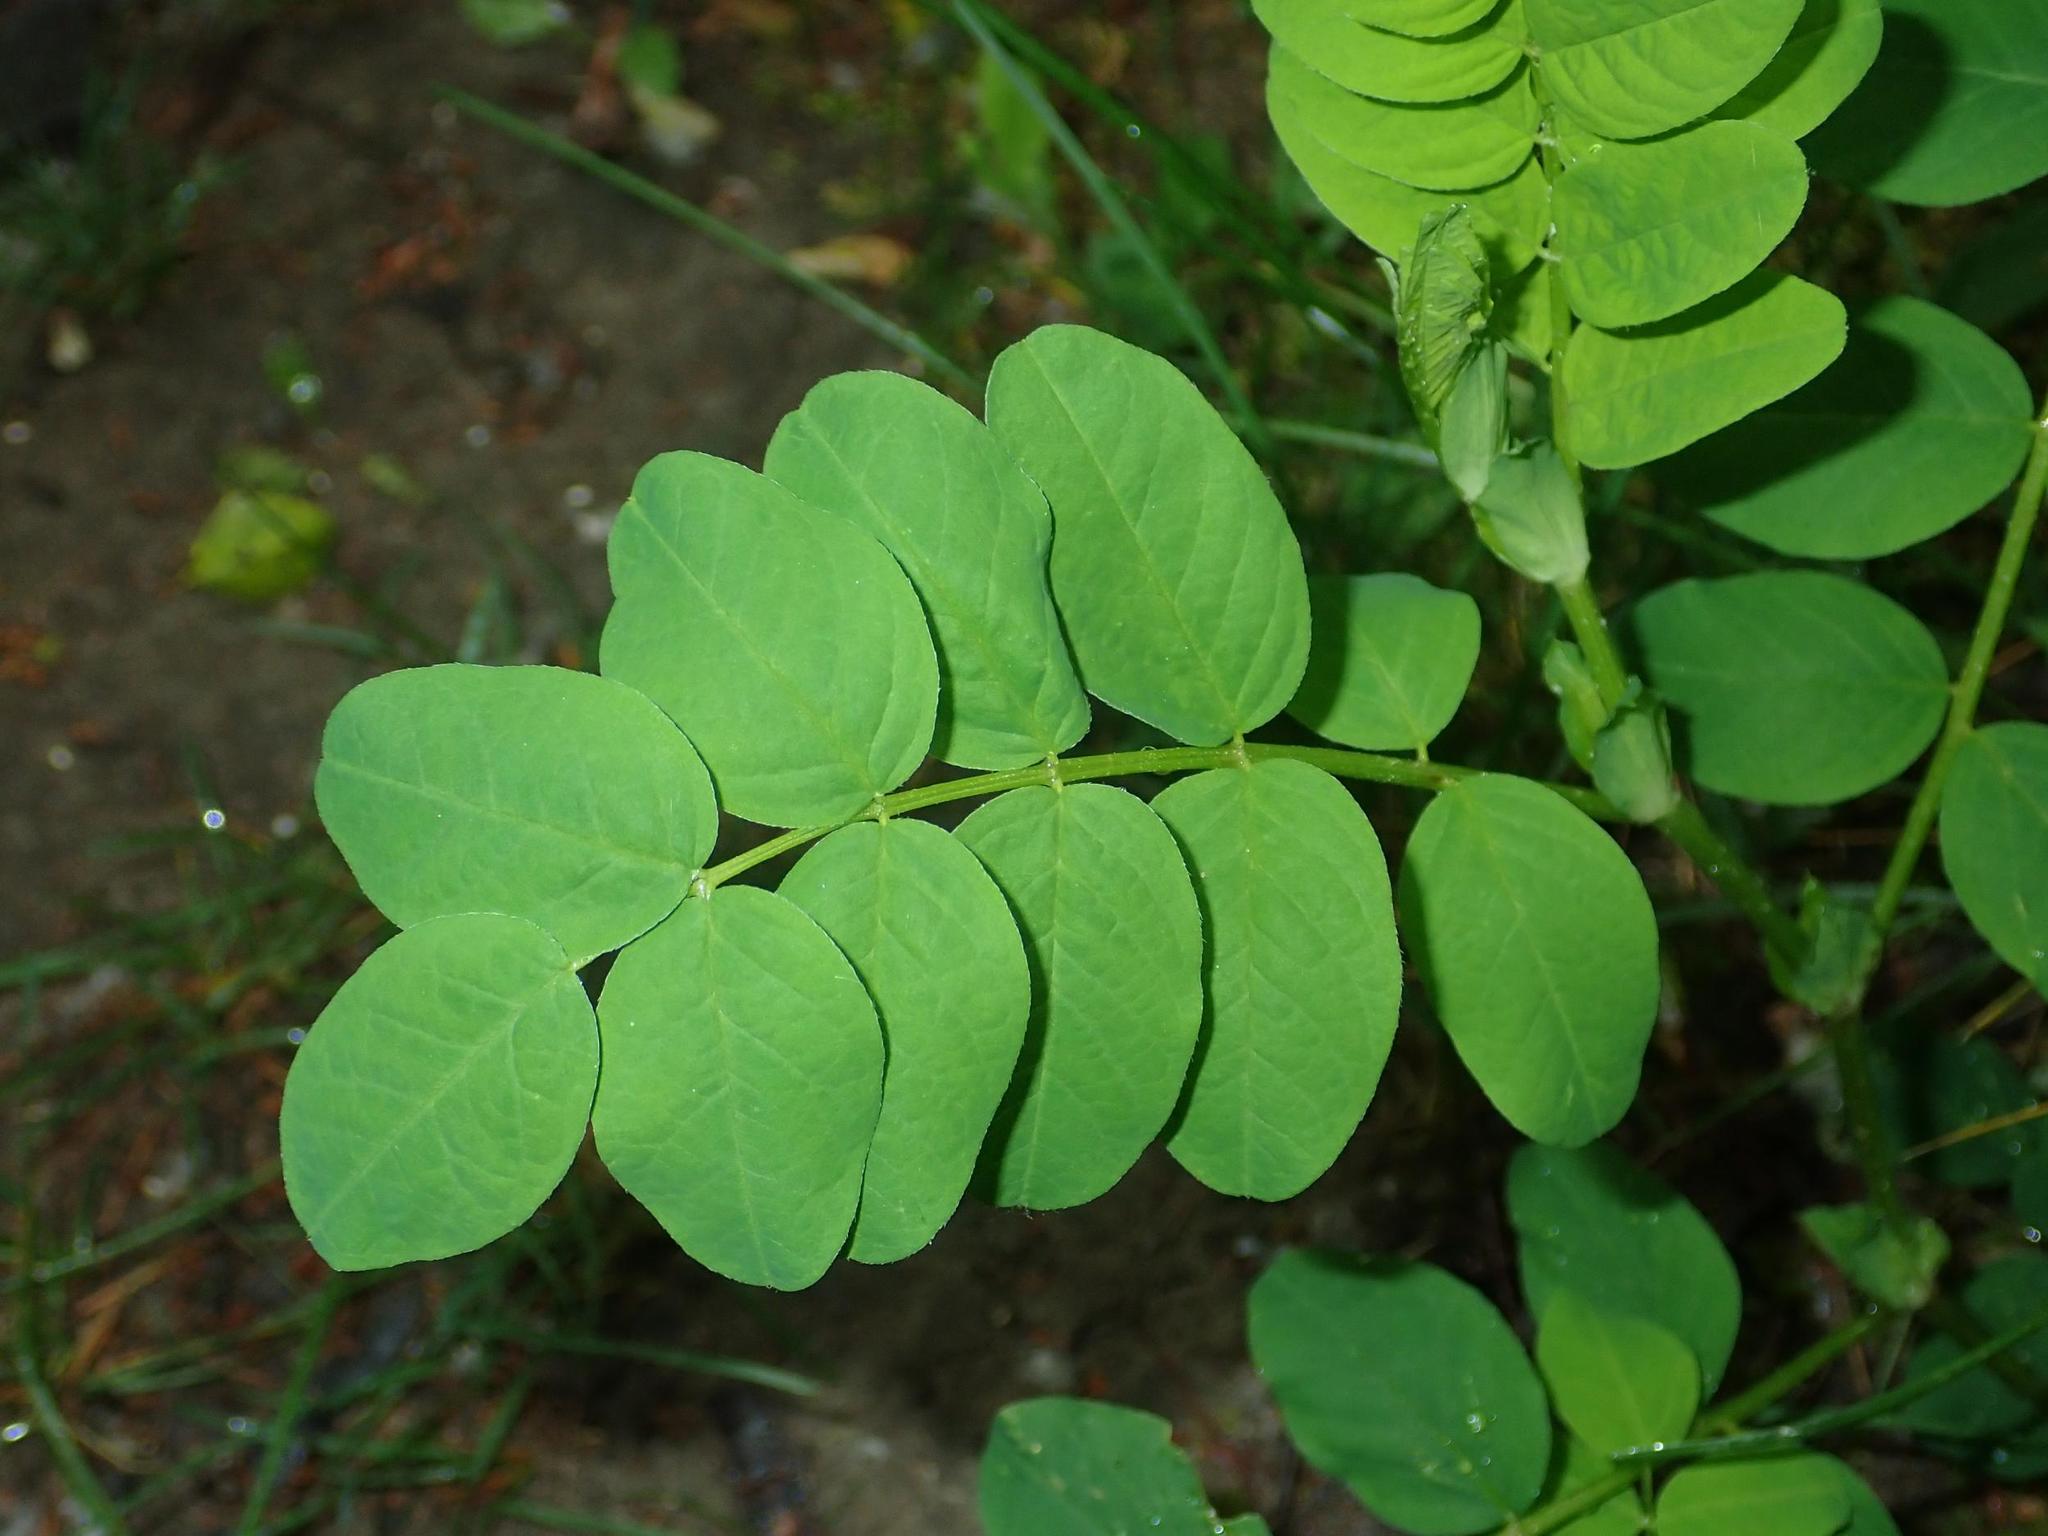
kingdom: Plantae
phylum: Tracheophyta
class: Magnoliopsida
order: Fabales
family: Fabaceae
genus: Robinia
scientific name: Robinia pseudoacacia
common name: Black locust
